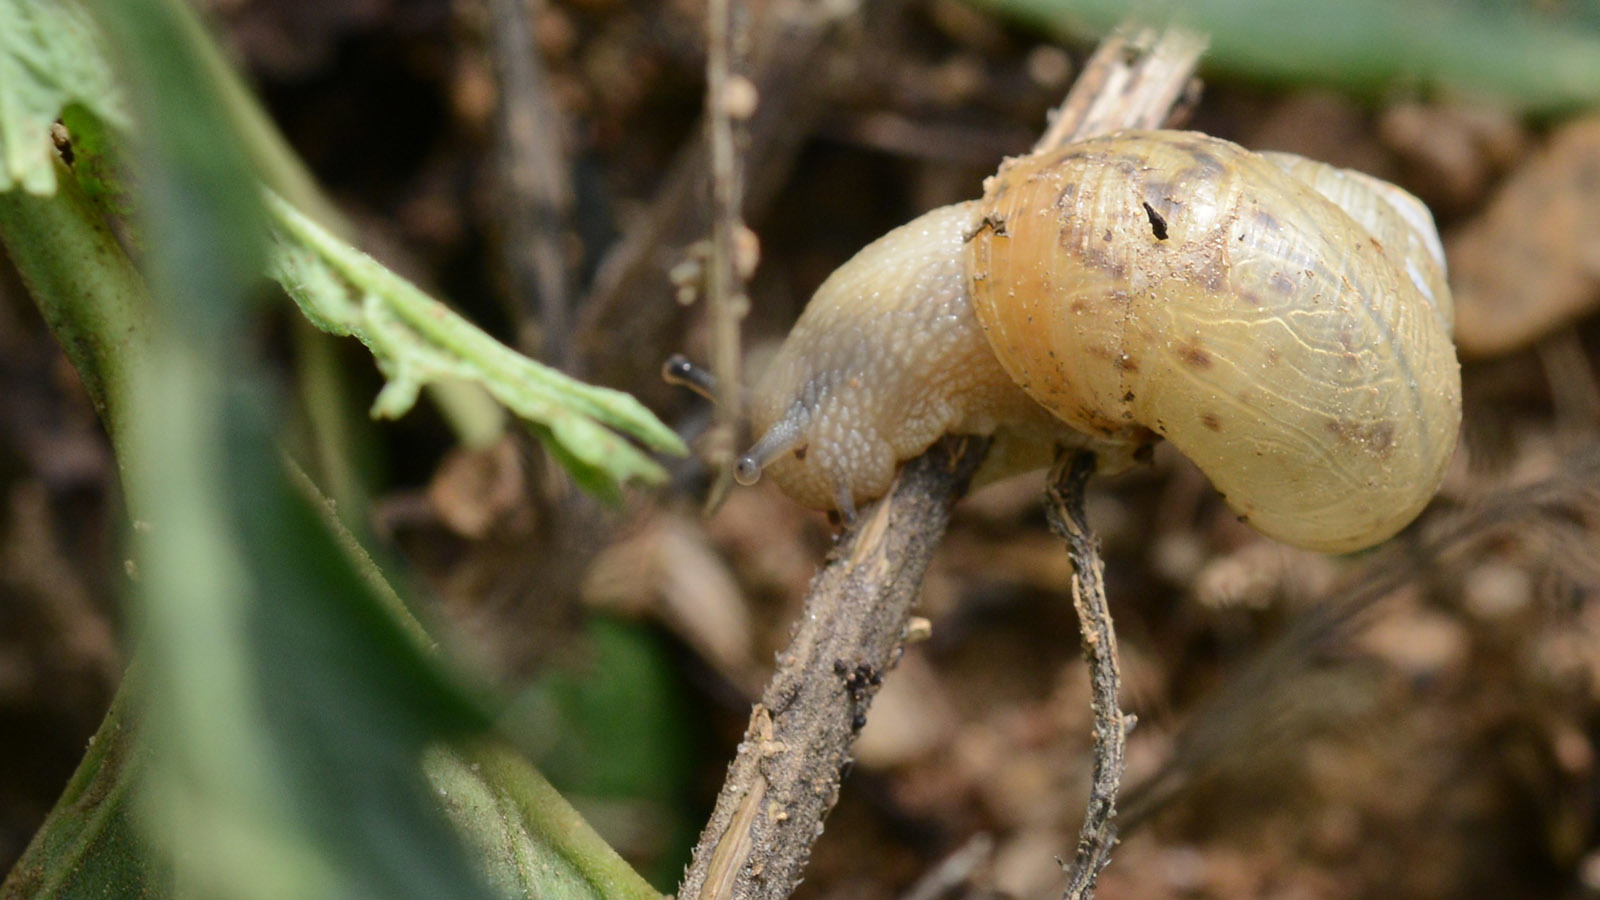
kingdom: Animalia
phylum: Mollusca
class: Gastropoda
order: Stylommatophora
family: Camaenidae
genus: Acusta
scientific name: Acusta redfieldi
